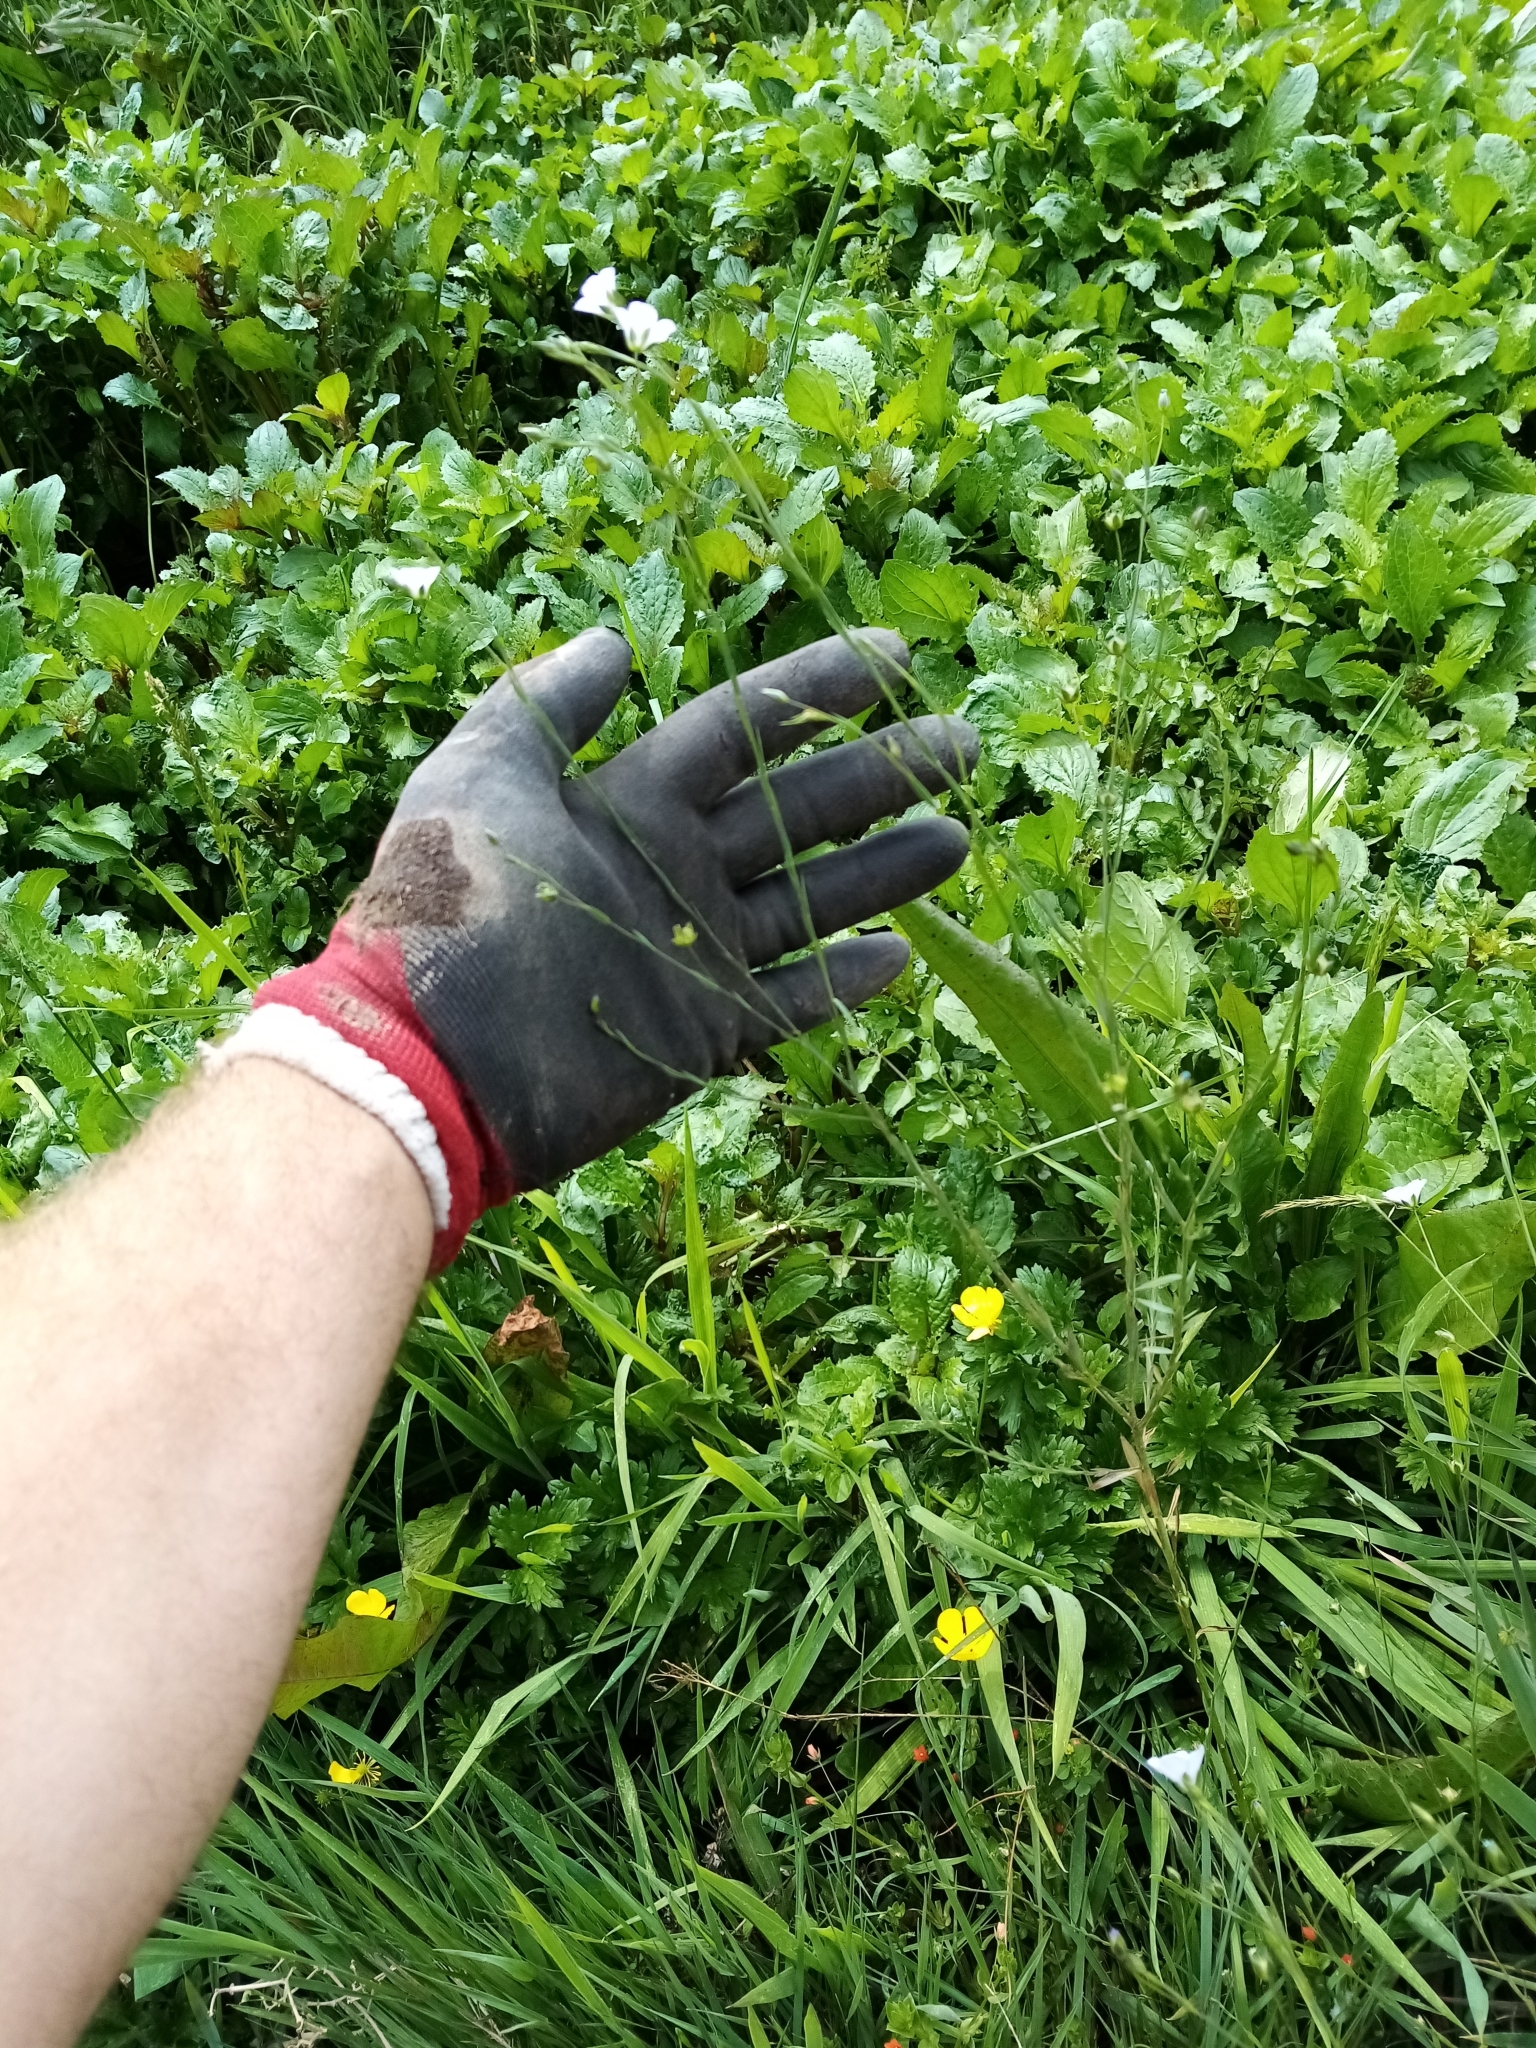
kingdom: Plantae
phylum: Tracheophyta
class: Magnoliopsida
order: Malpighiales
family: Linaceae
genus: Linum
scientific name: Linum bienne
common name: Pale flax
